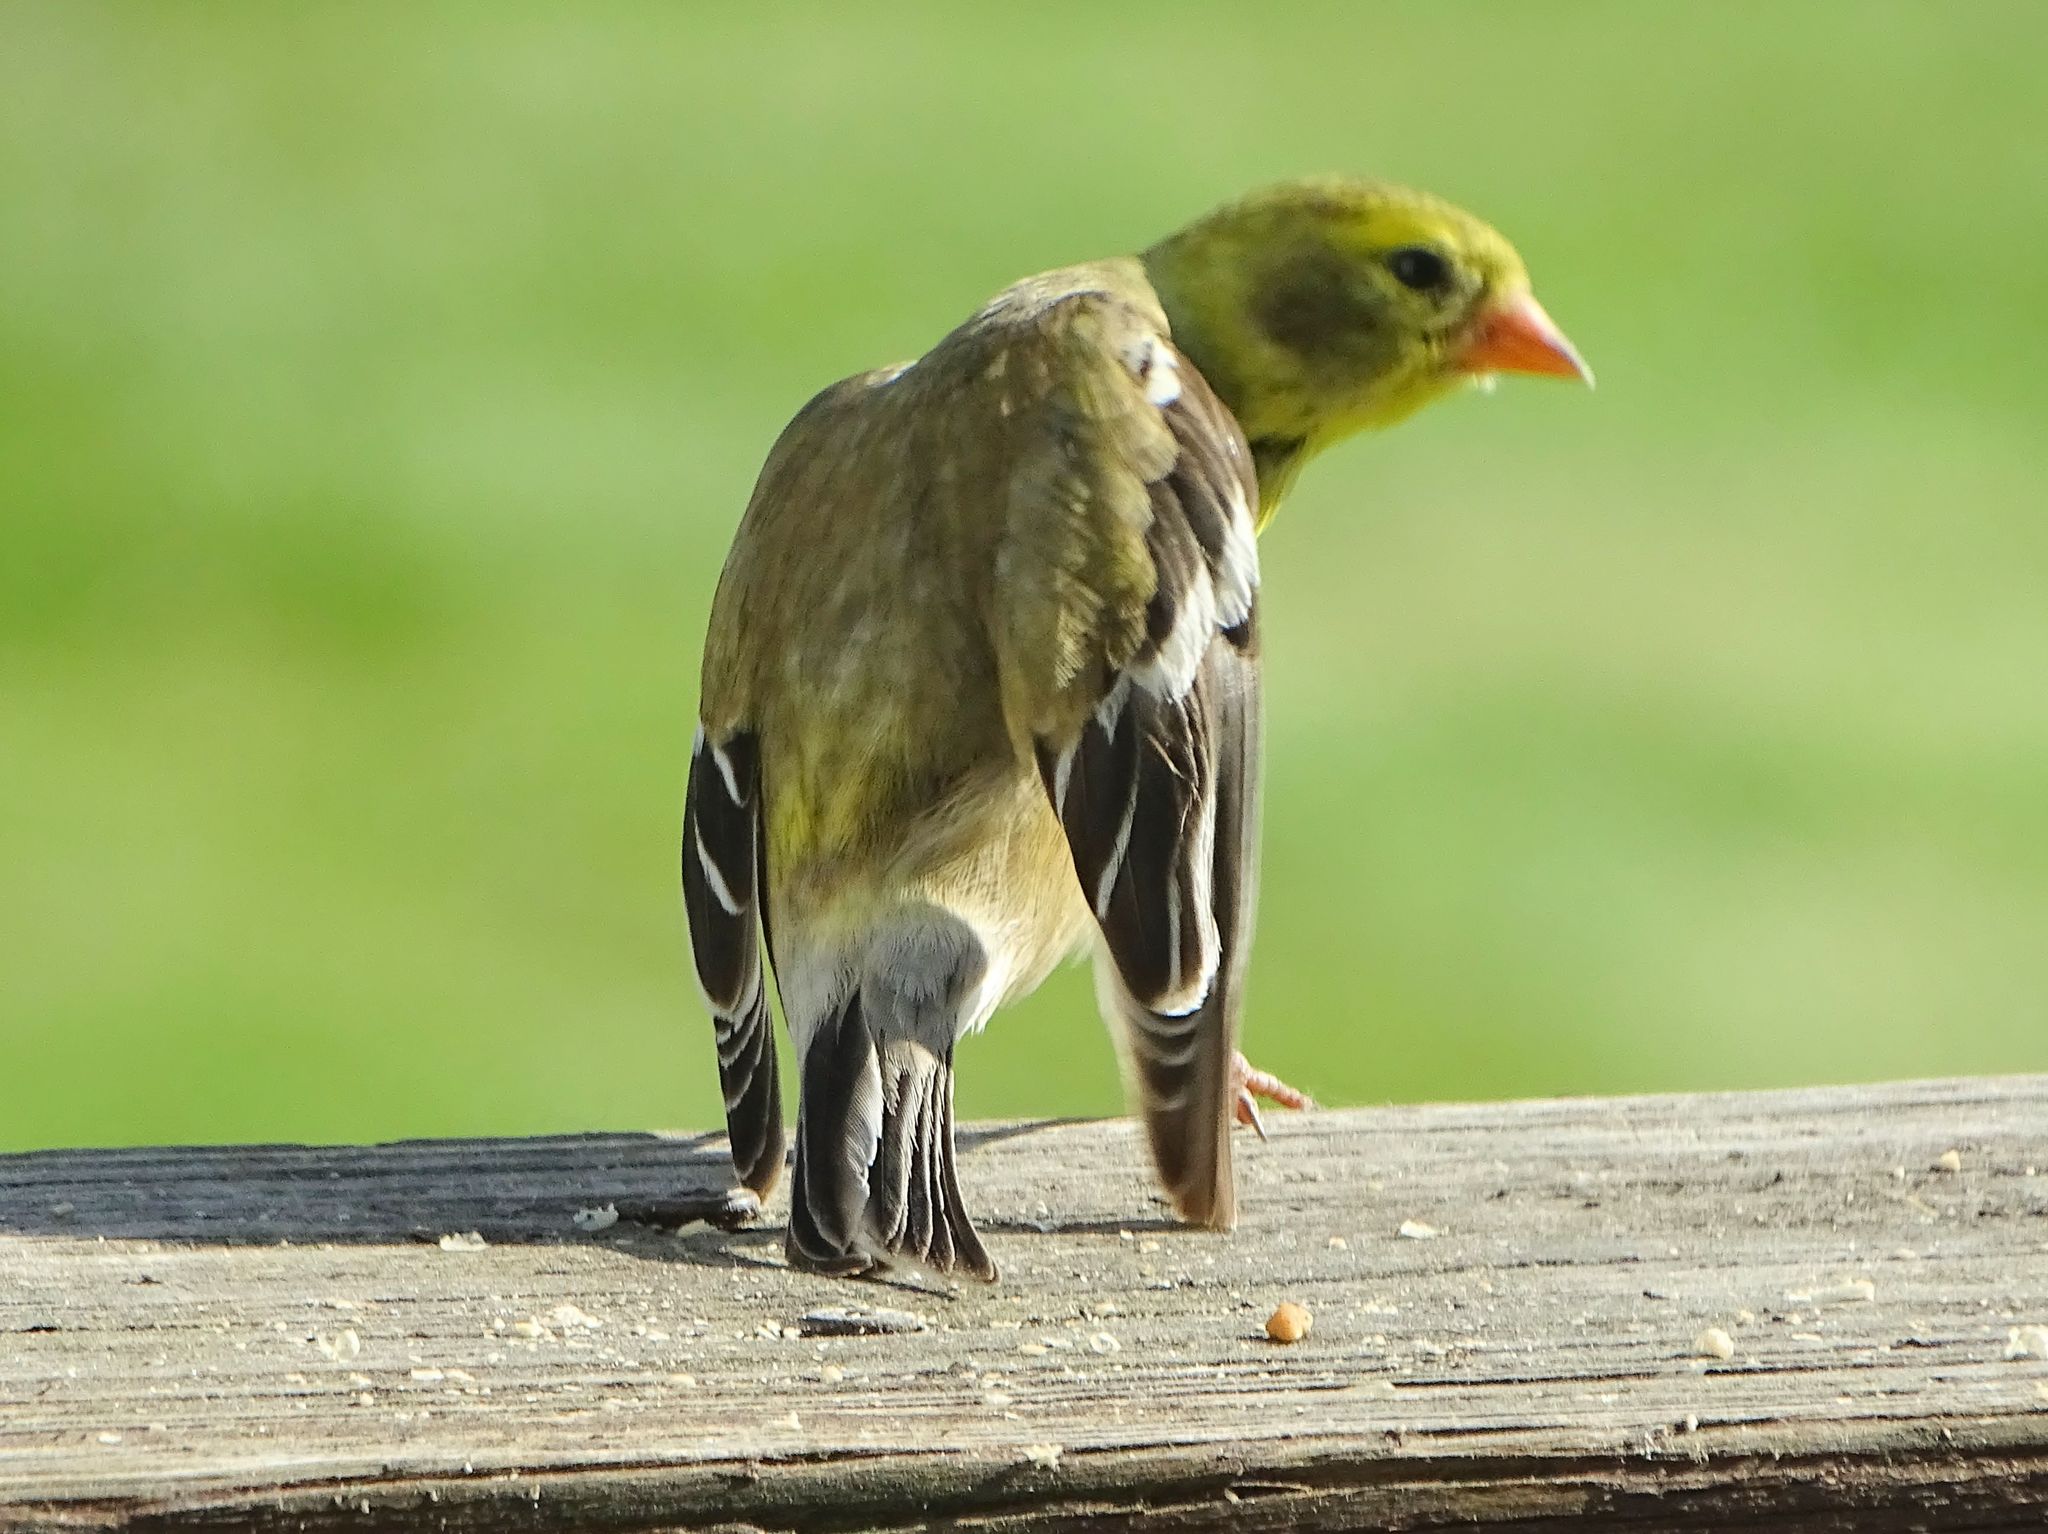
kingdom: Animalia
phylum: Chordata
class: Aves
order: Passeriformes
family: Fringillidae
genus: Spinus
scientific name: Spinus tristis
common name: American goldfinch
